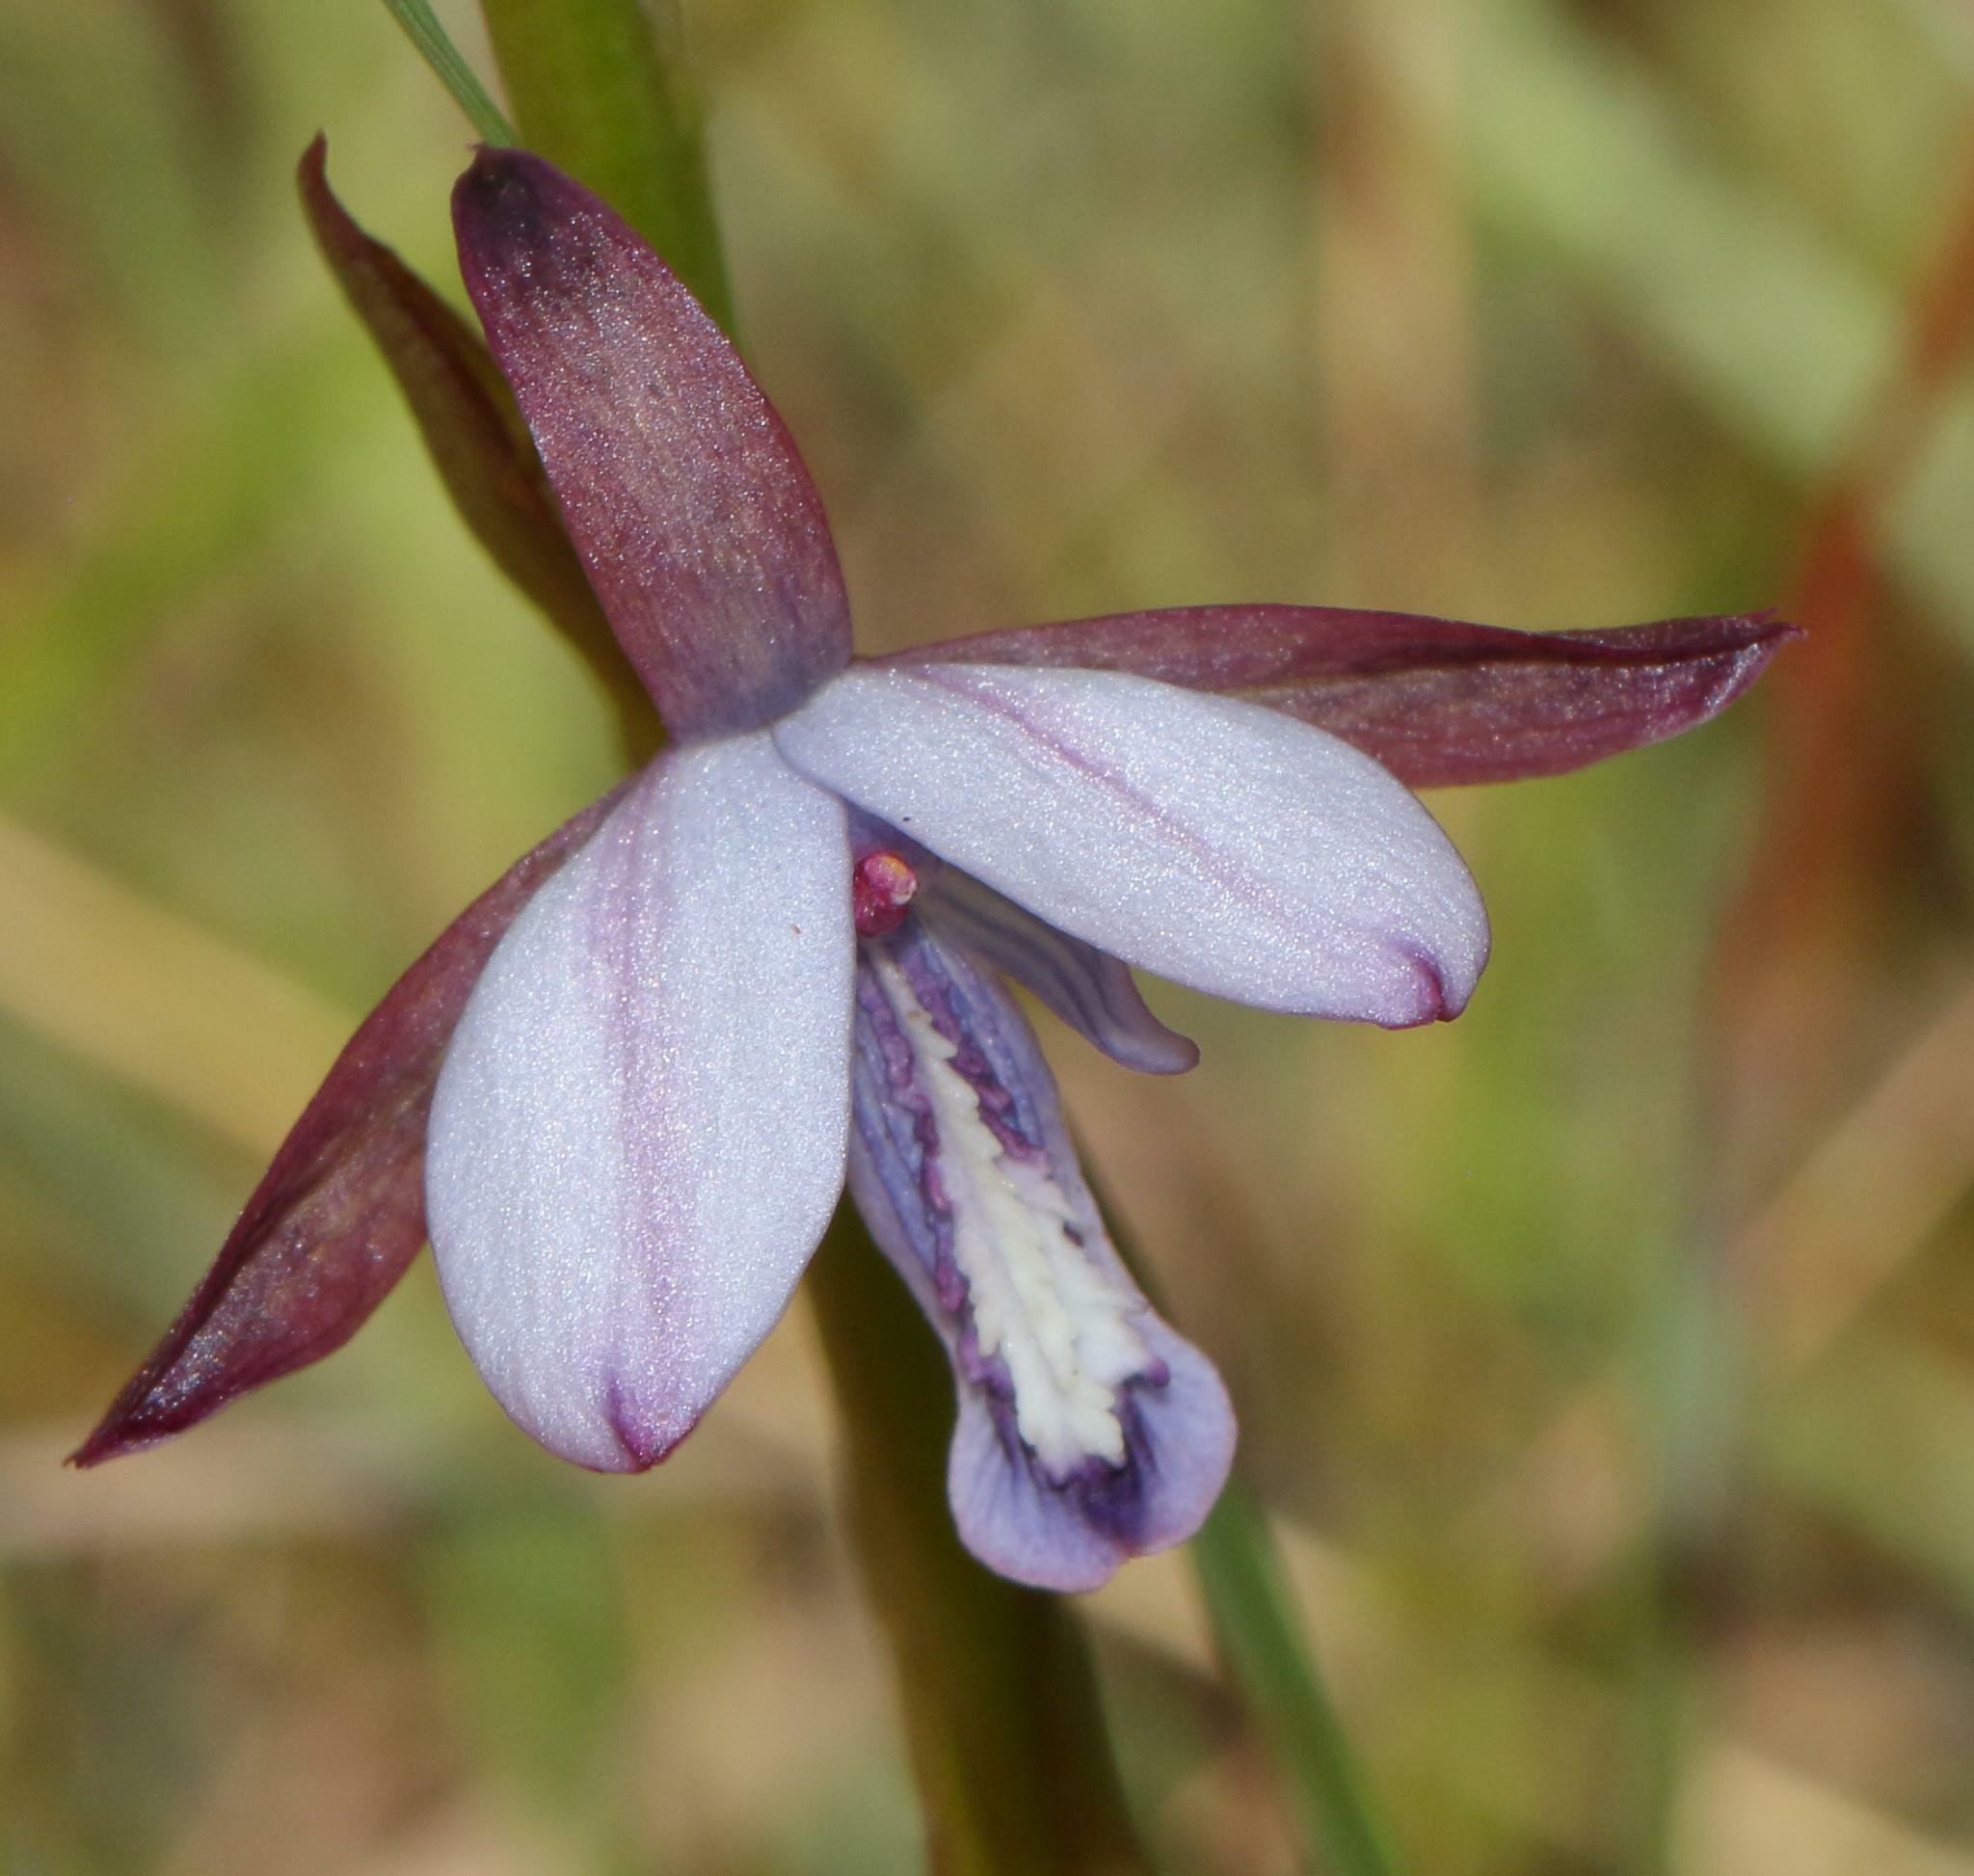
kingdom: Plantae
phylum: Tracheophyta
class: Liliopsida
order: Asparagales
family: Orchidaceae
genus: Eulophia
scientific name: Eulophia zeyheriana
